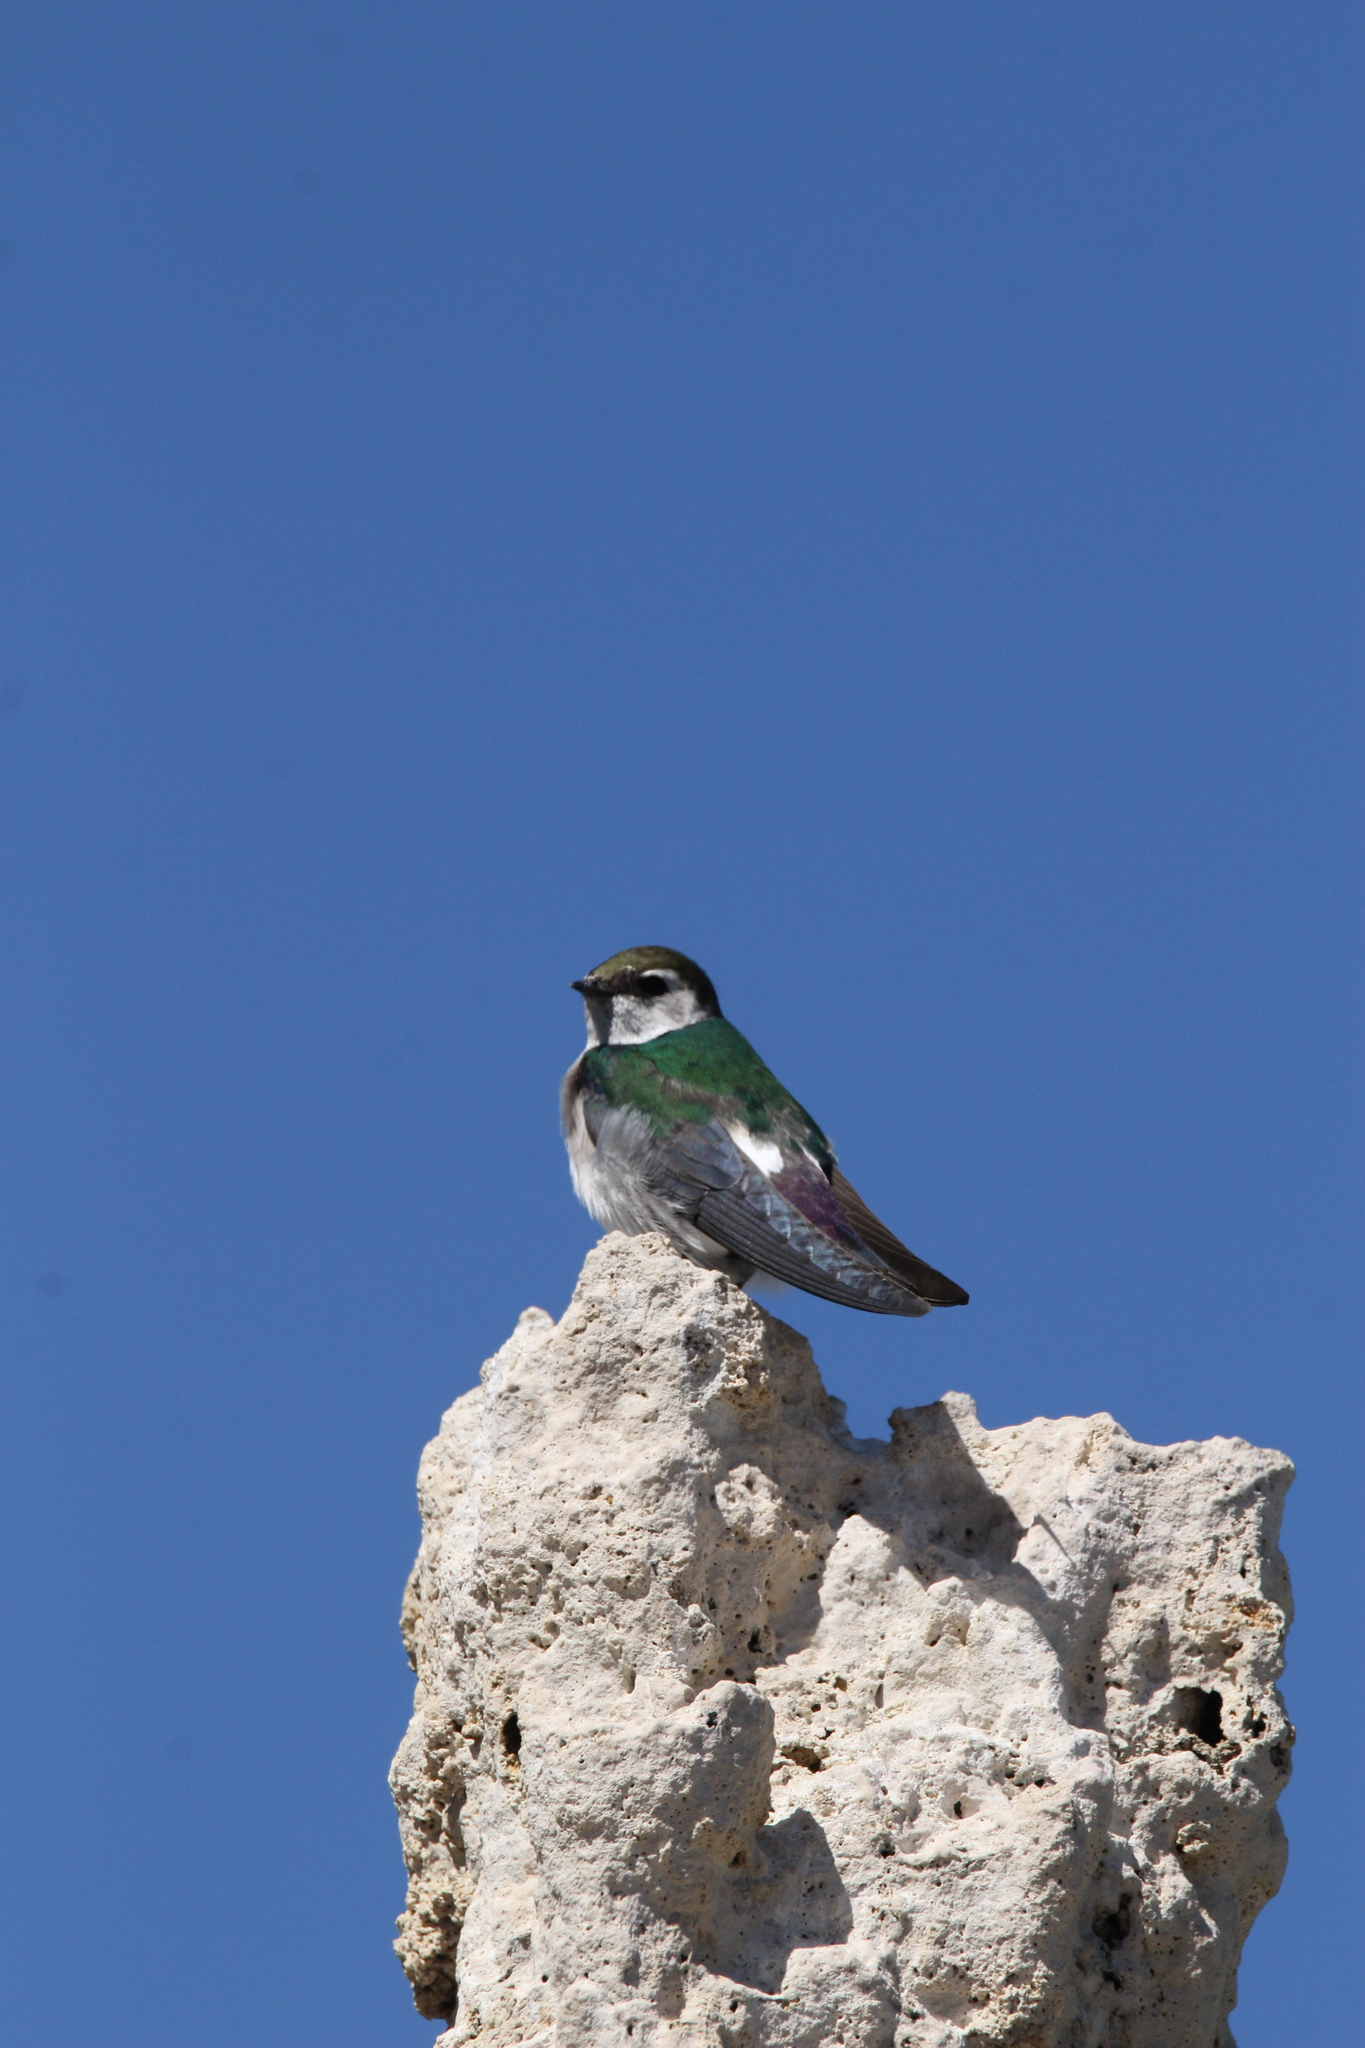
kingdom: Animalia
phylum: Chordata
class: Aves
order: Passeriformes
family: Hirundinidae
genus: Tachycineta
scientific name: Tachycineta thalassina
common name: Violet-green swallow
